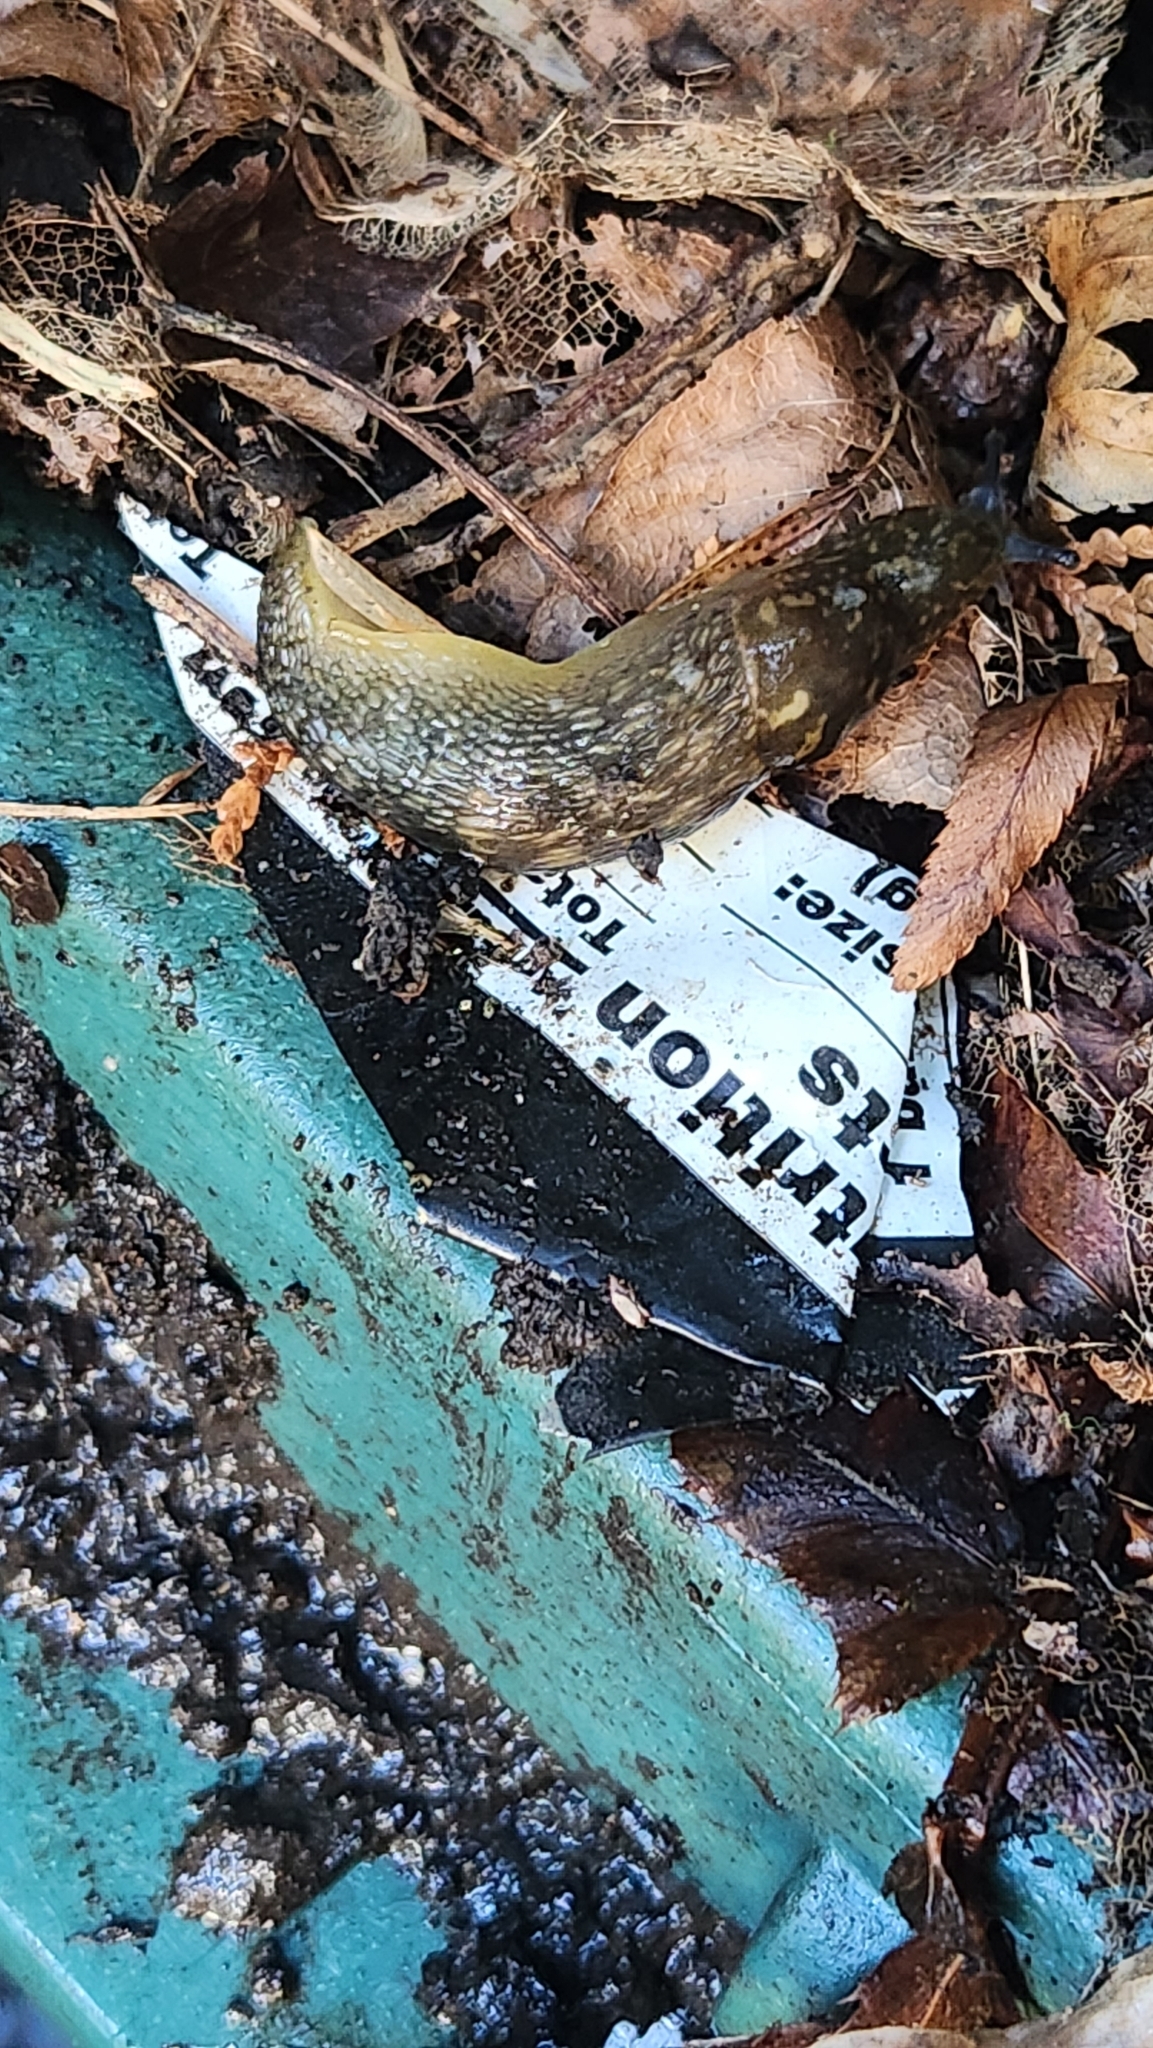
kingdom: Animalia
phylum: Mollusca
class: Gastropoda
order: Stylommatophora
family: Limacidae
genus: Limacus
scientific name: Limacus flavus
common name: Yellow gardenslug
